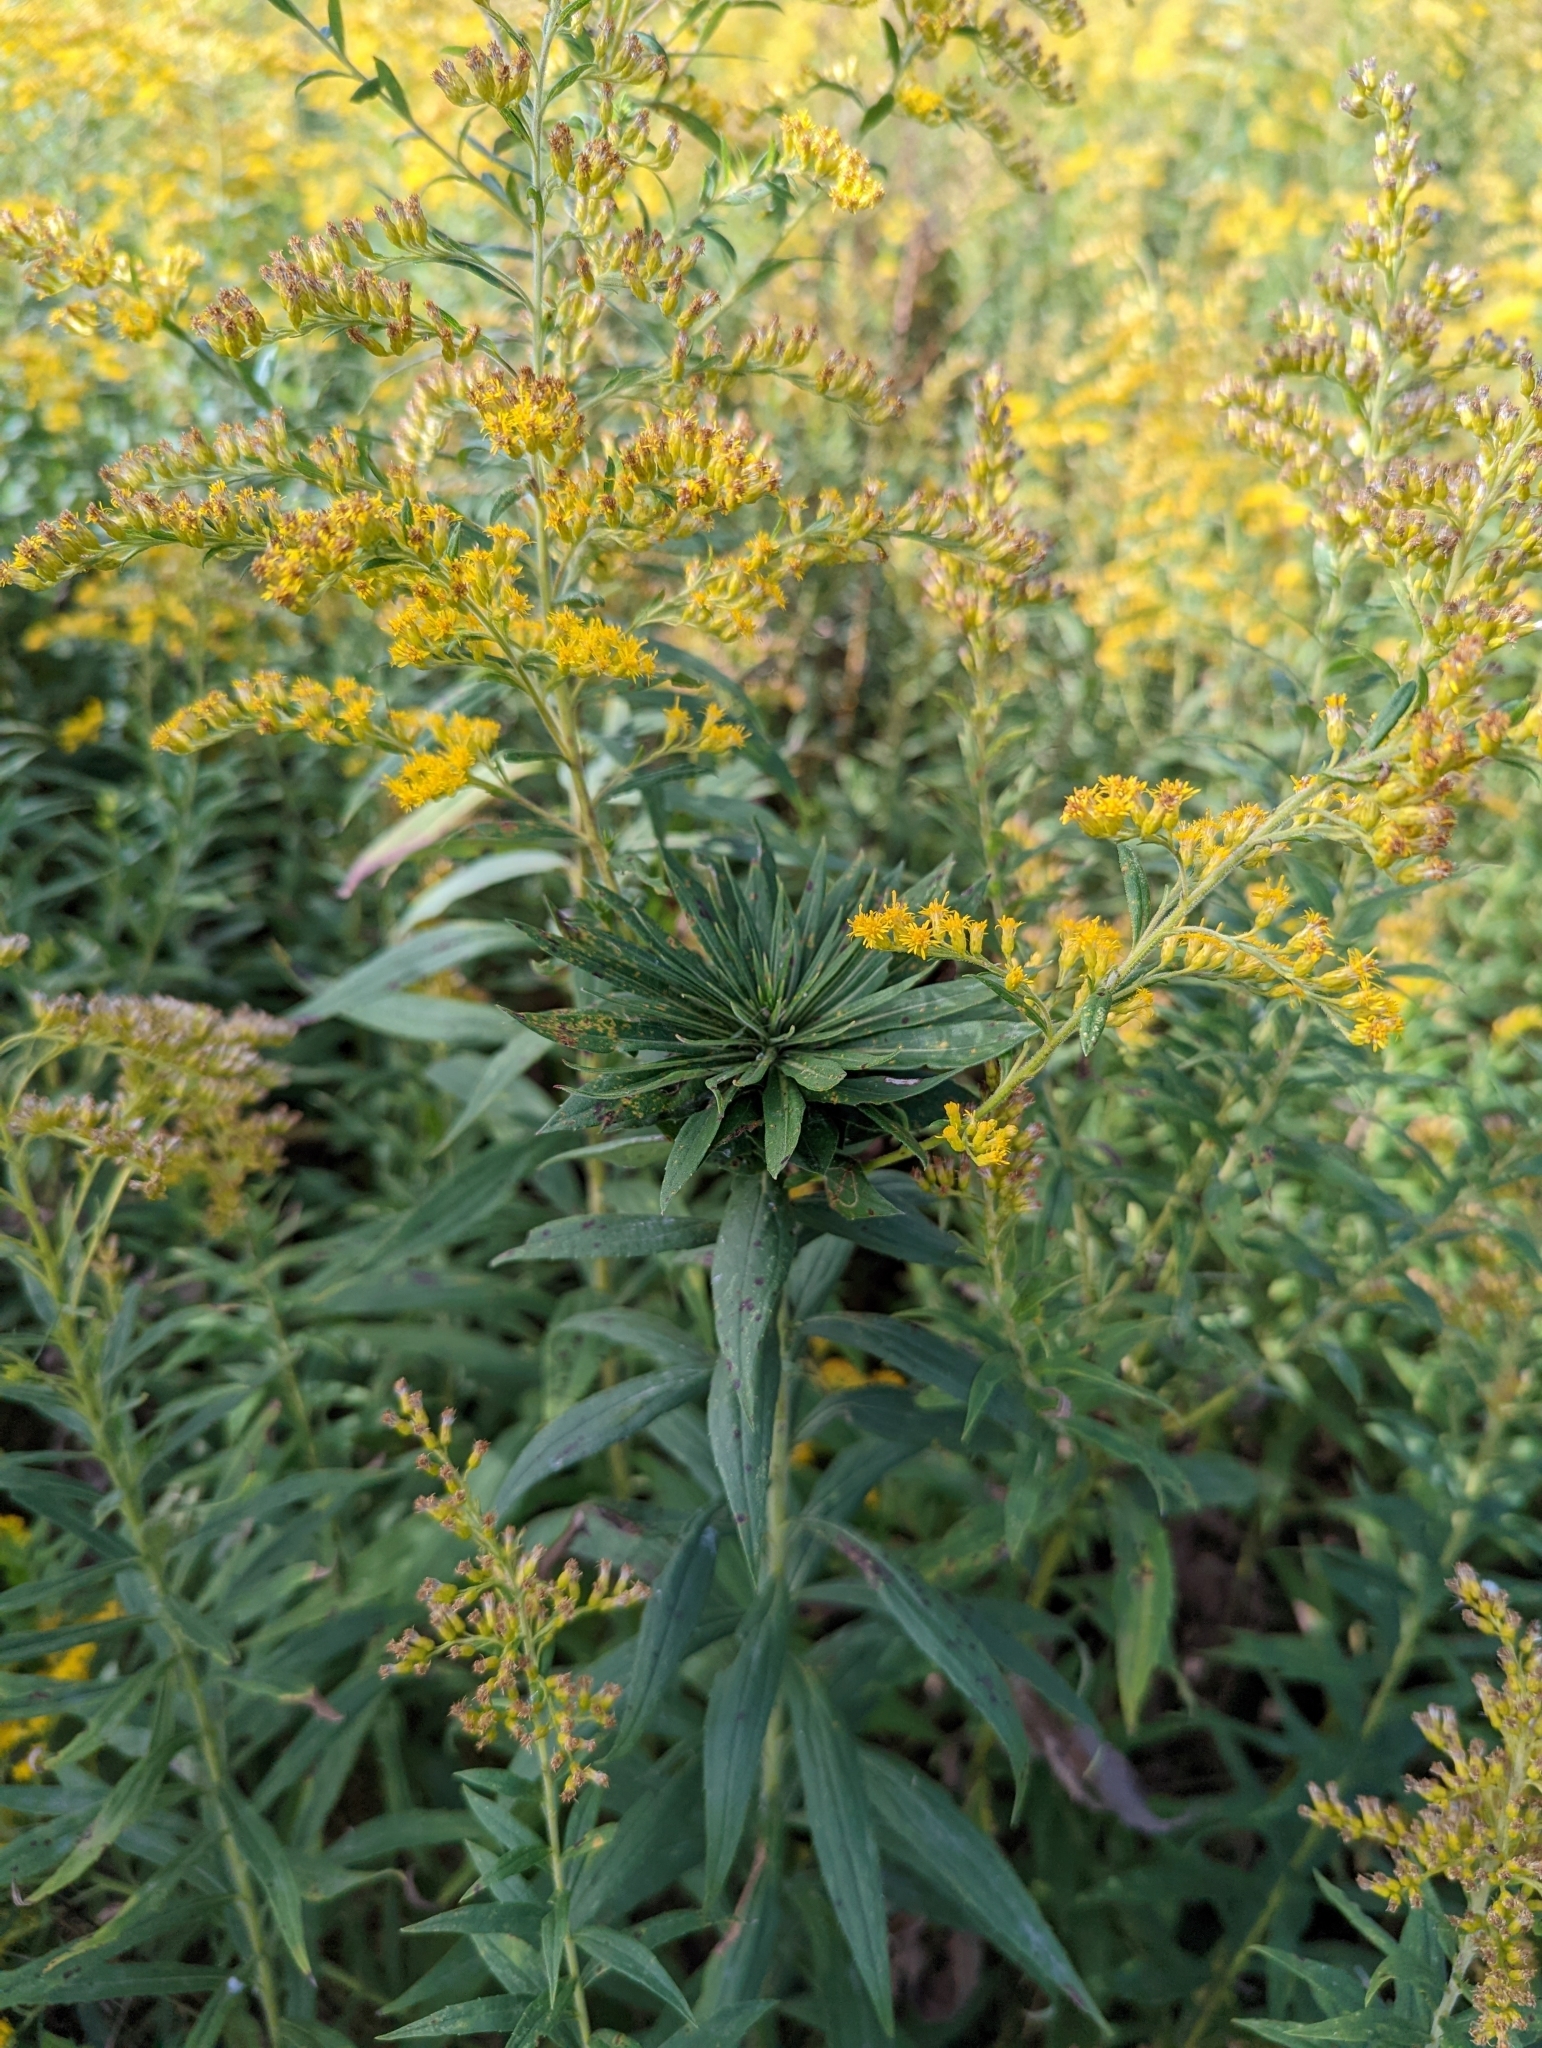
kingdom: Animalia
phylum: Arthropoda
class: Insecta
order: Diptera
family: Cecidomyiidae
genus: Rhopalomyia
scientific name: Rhopalomyia solidaginis
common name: Goldenrod bunch gall midge
